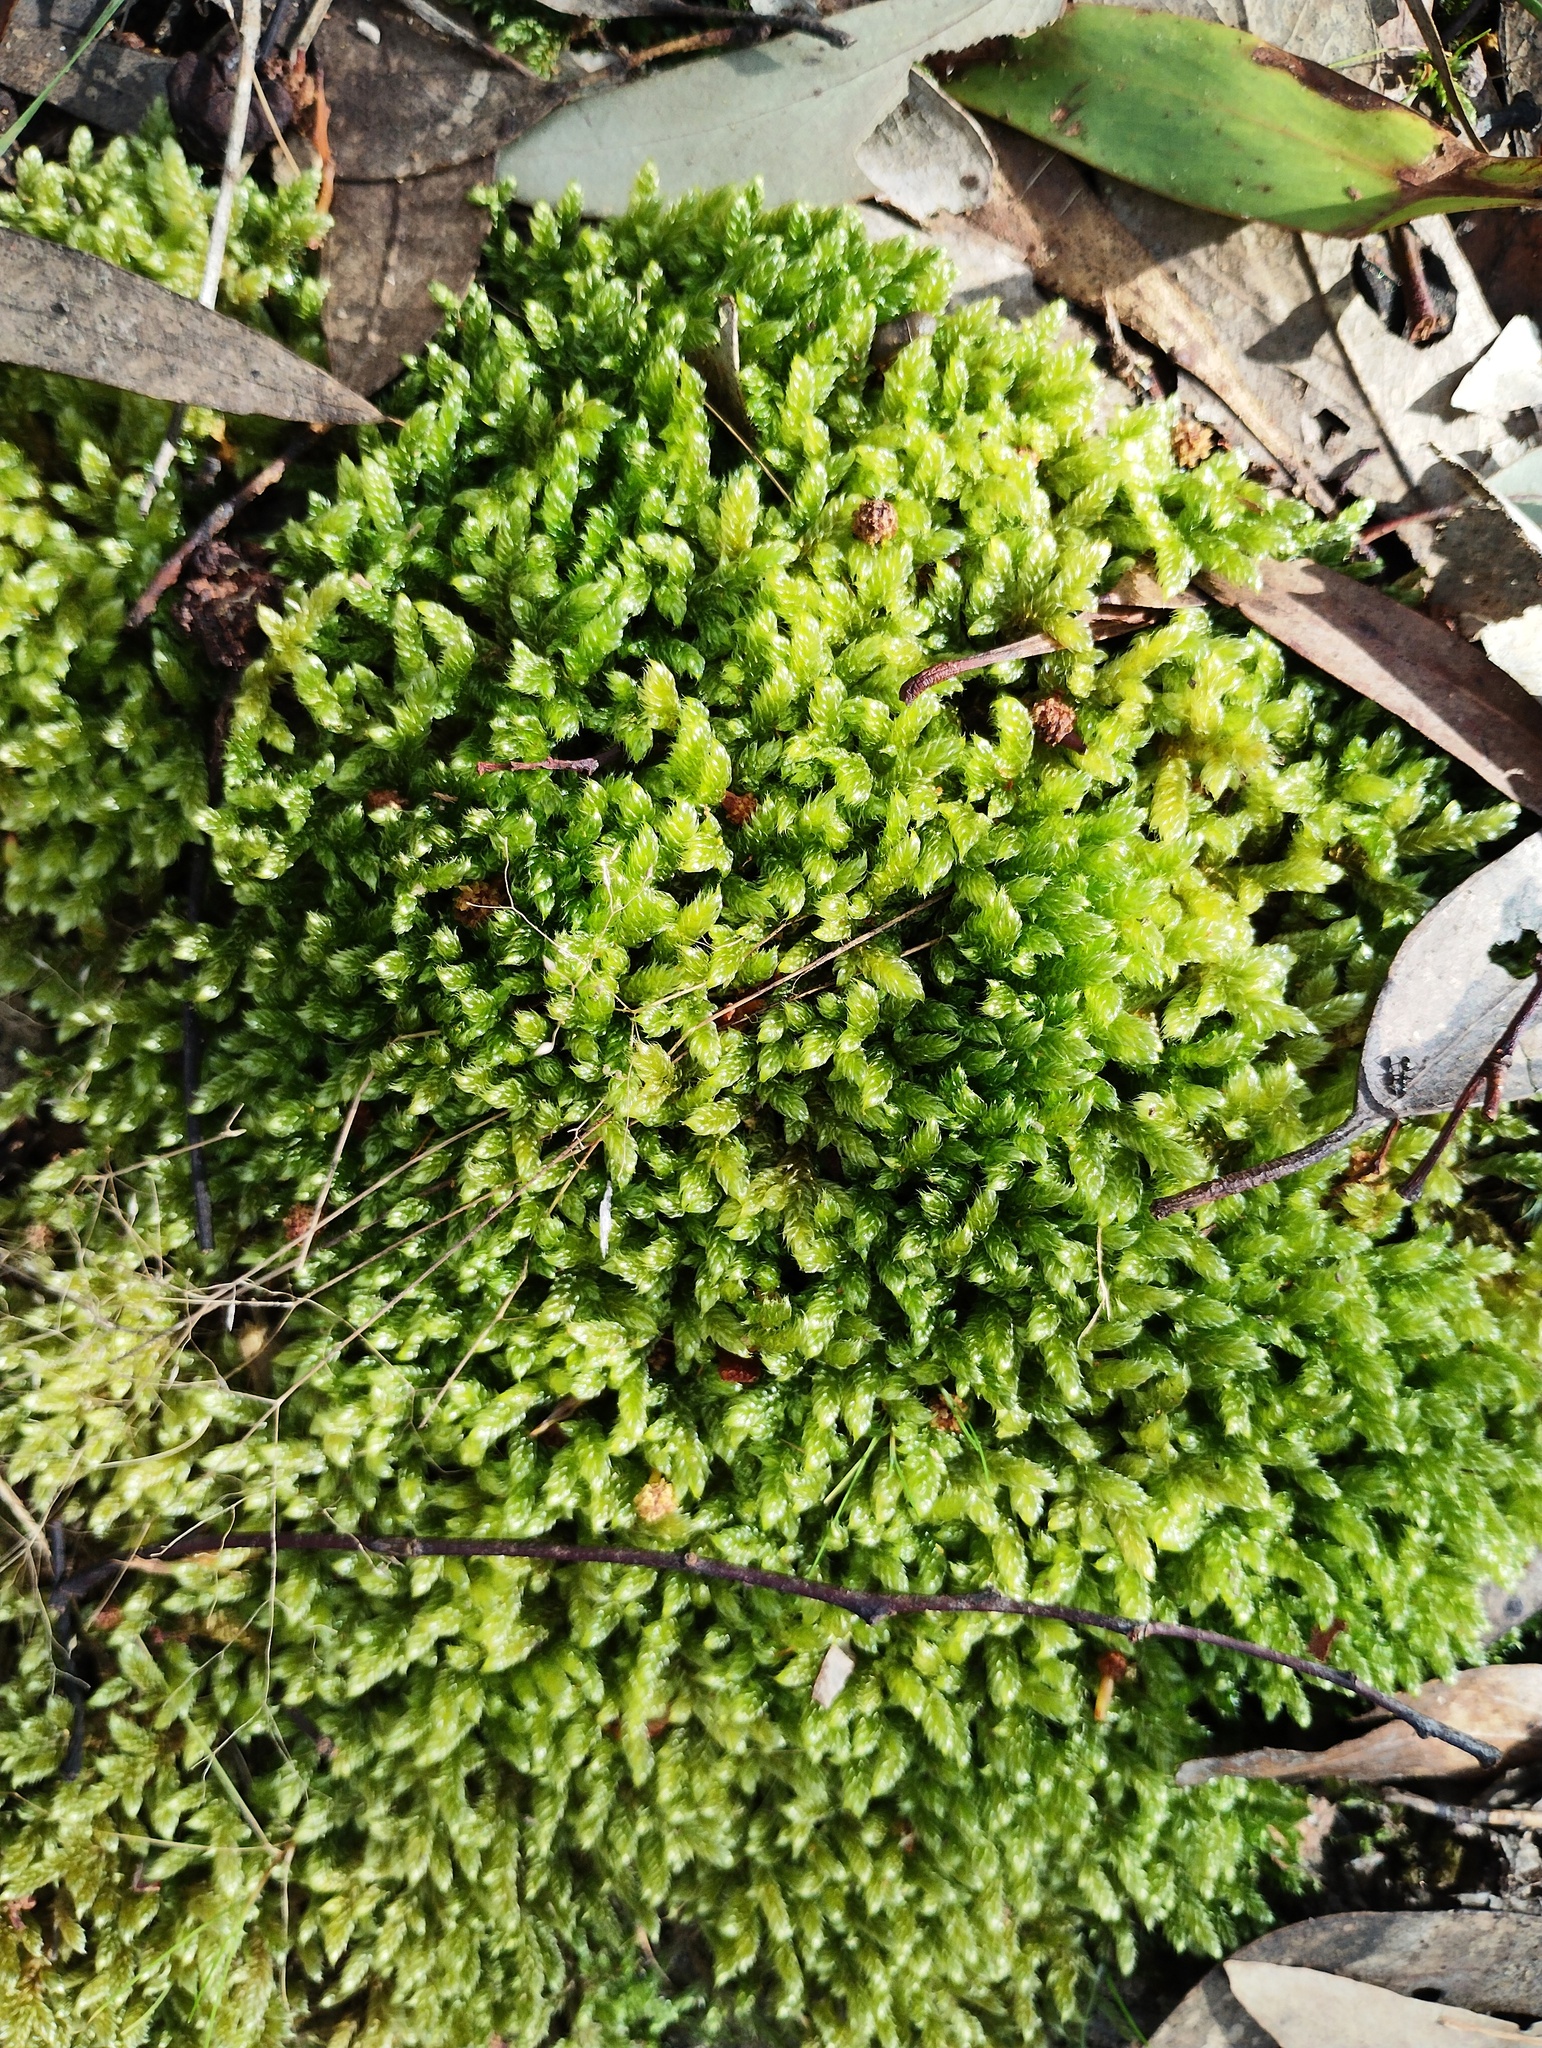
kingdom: Plantae
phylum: Bryophyta
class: Bryopsida
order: Hypnales
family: Hypnaceae
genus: Hypnum
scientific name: Hypnum cupressiforme
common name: Cypress-leaved plait-moss
